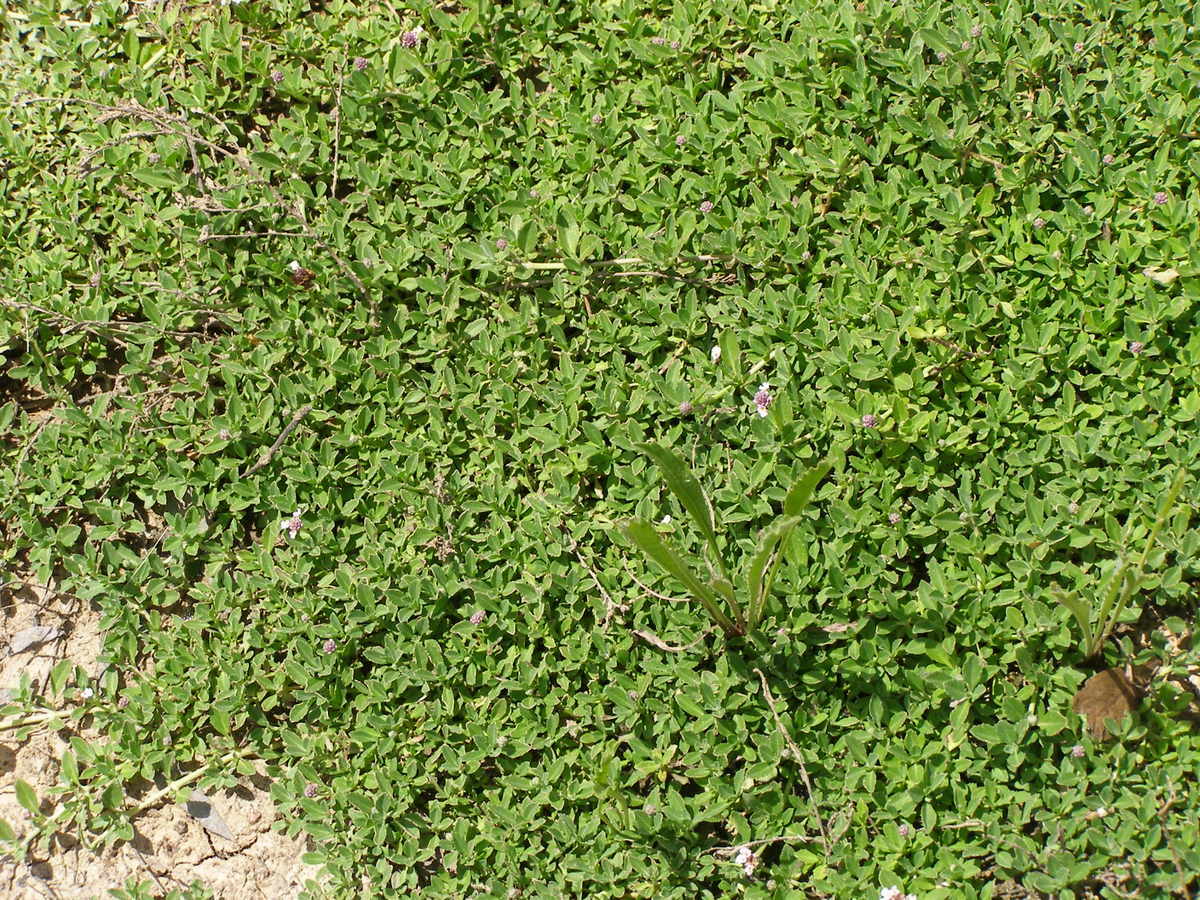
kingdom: Plantae
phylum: Tracheophyta
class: Magnoliopsida
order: Lamiales
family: Verbenaceae
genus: Phyla
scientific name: Phyla nodiflora
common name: Frogfruit
